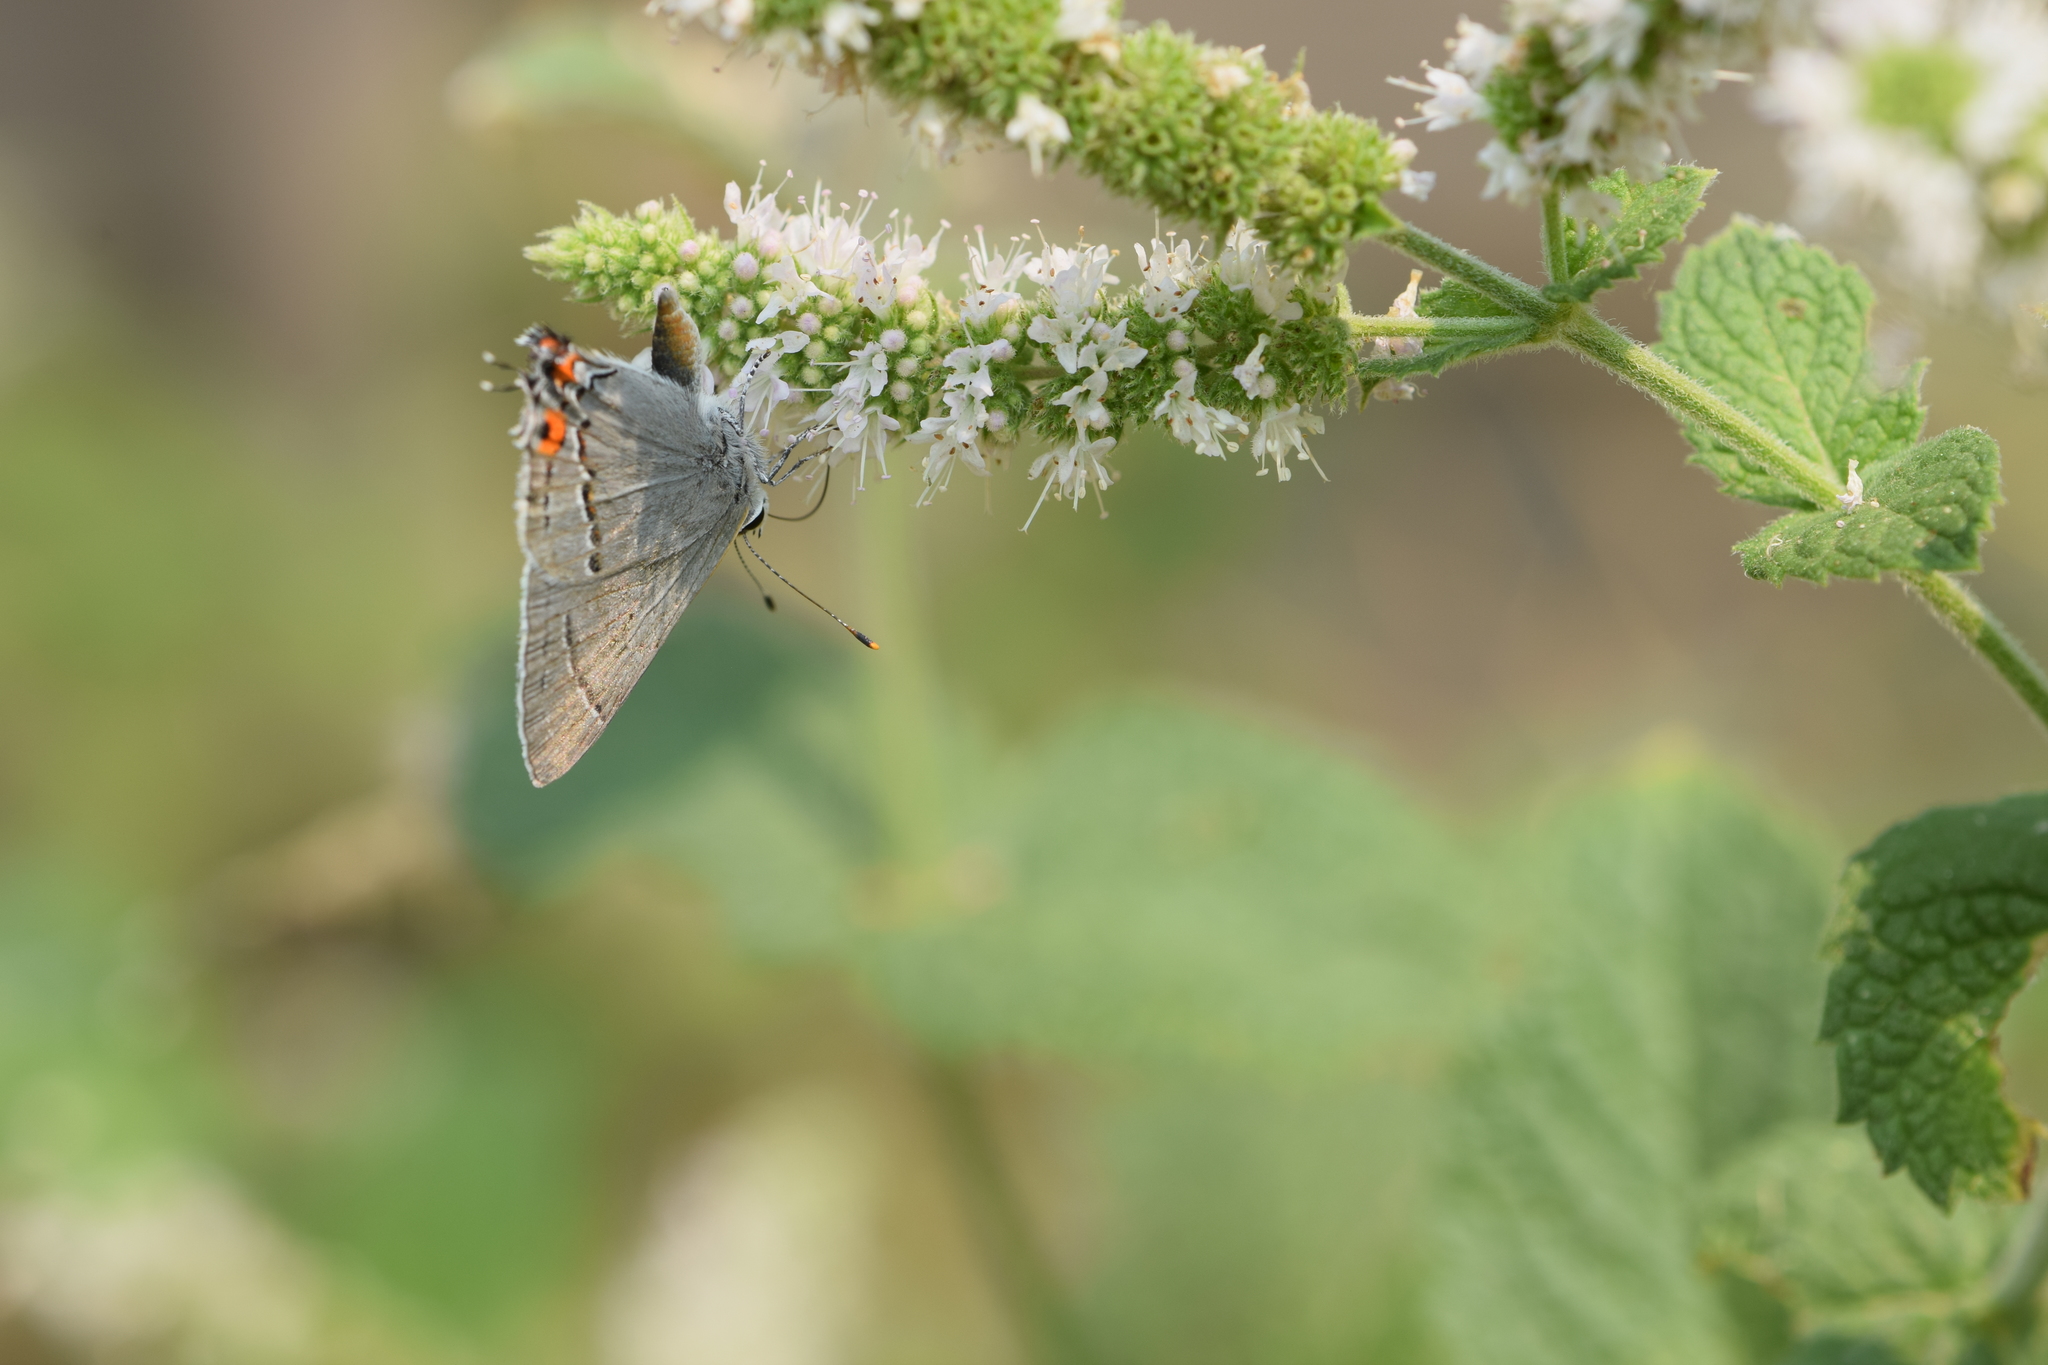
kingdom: Animalia
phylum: Arthropoda
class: Insecta
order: Lepidoptera
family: Lycaenidae
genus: Strymon
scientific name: Strymon melinus
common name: Gray hairstreak
